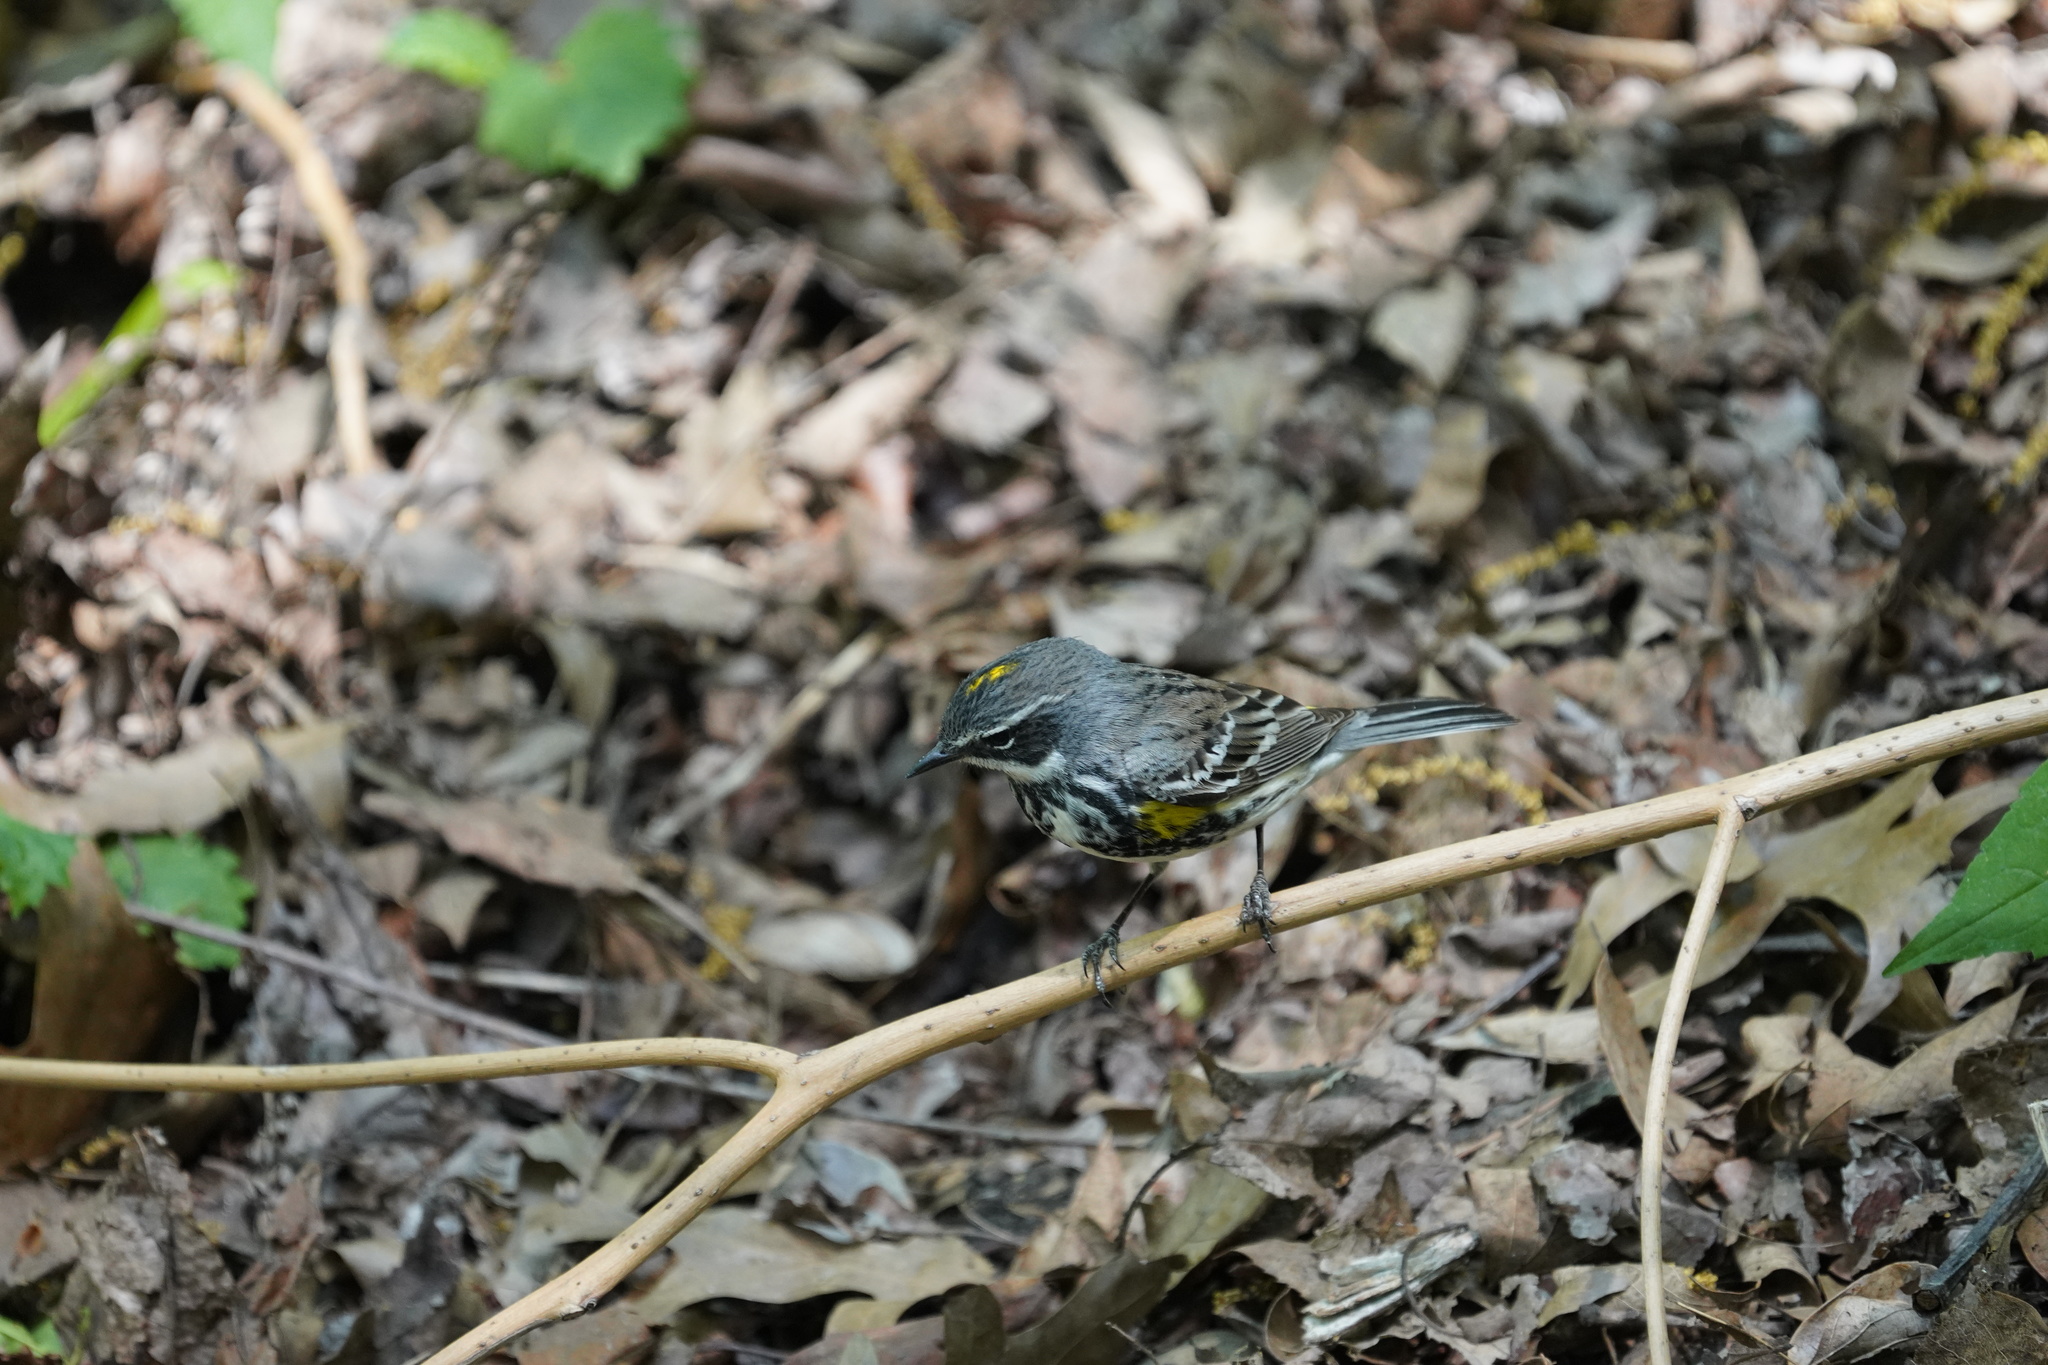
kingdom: Animalia
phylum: Chordata
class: Aves
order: Passeriformes
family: Parulidae
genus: Setophaga
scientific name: Setophaga coronata
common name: Myrtle warbler
